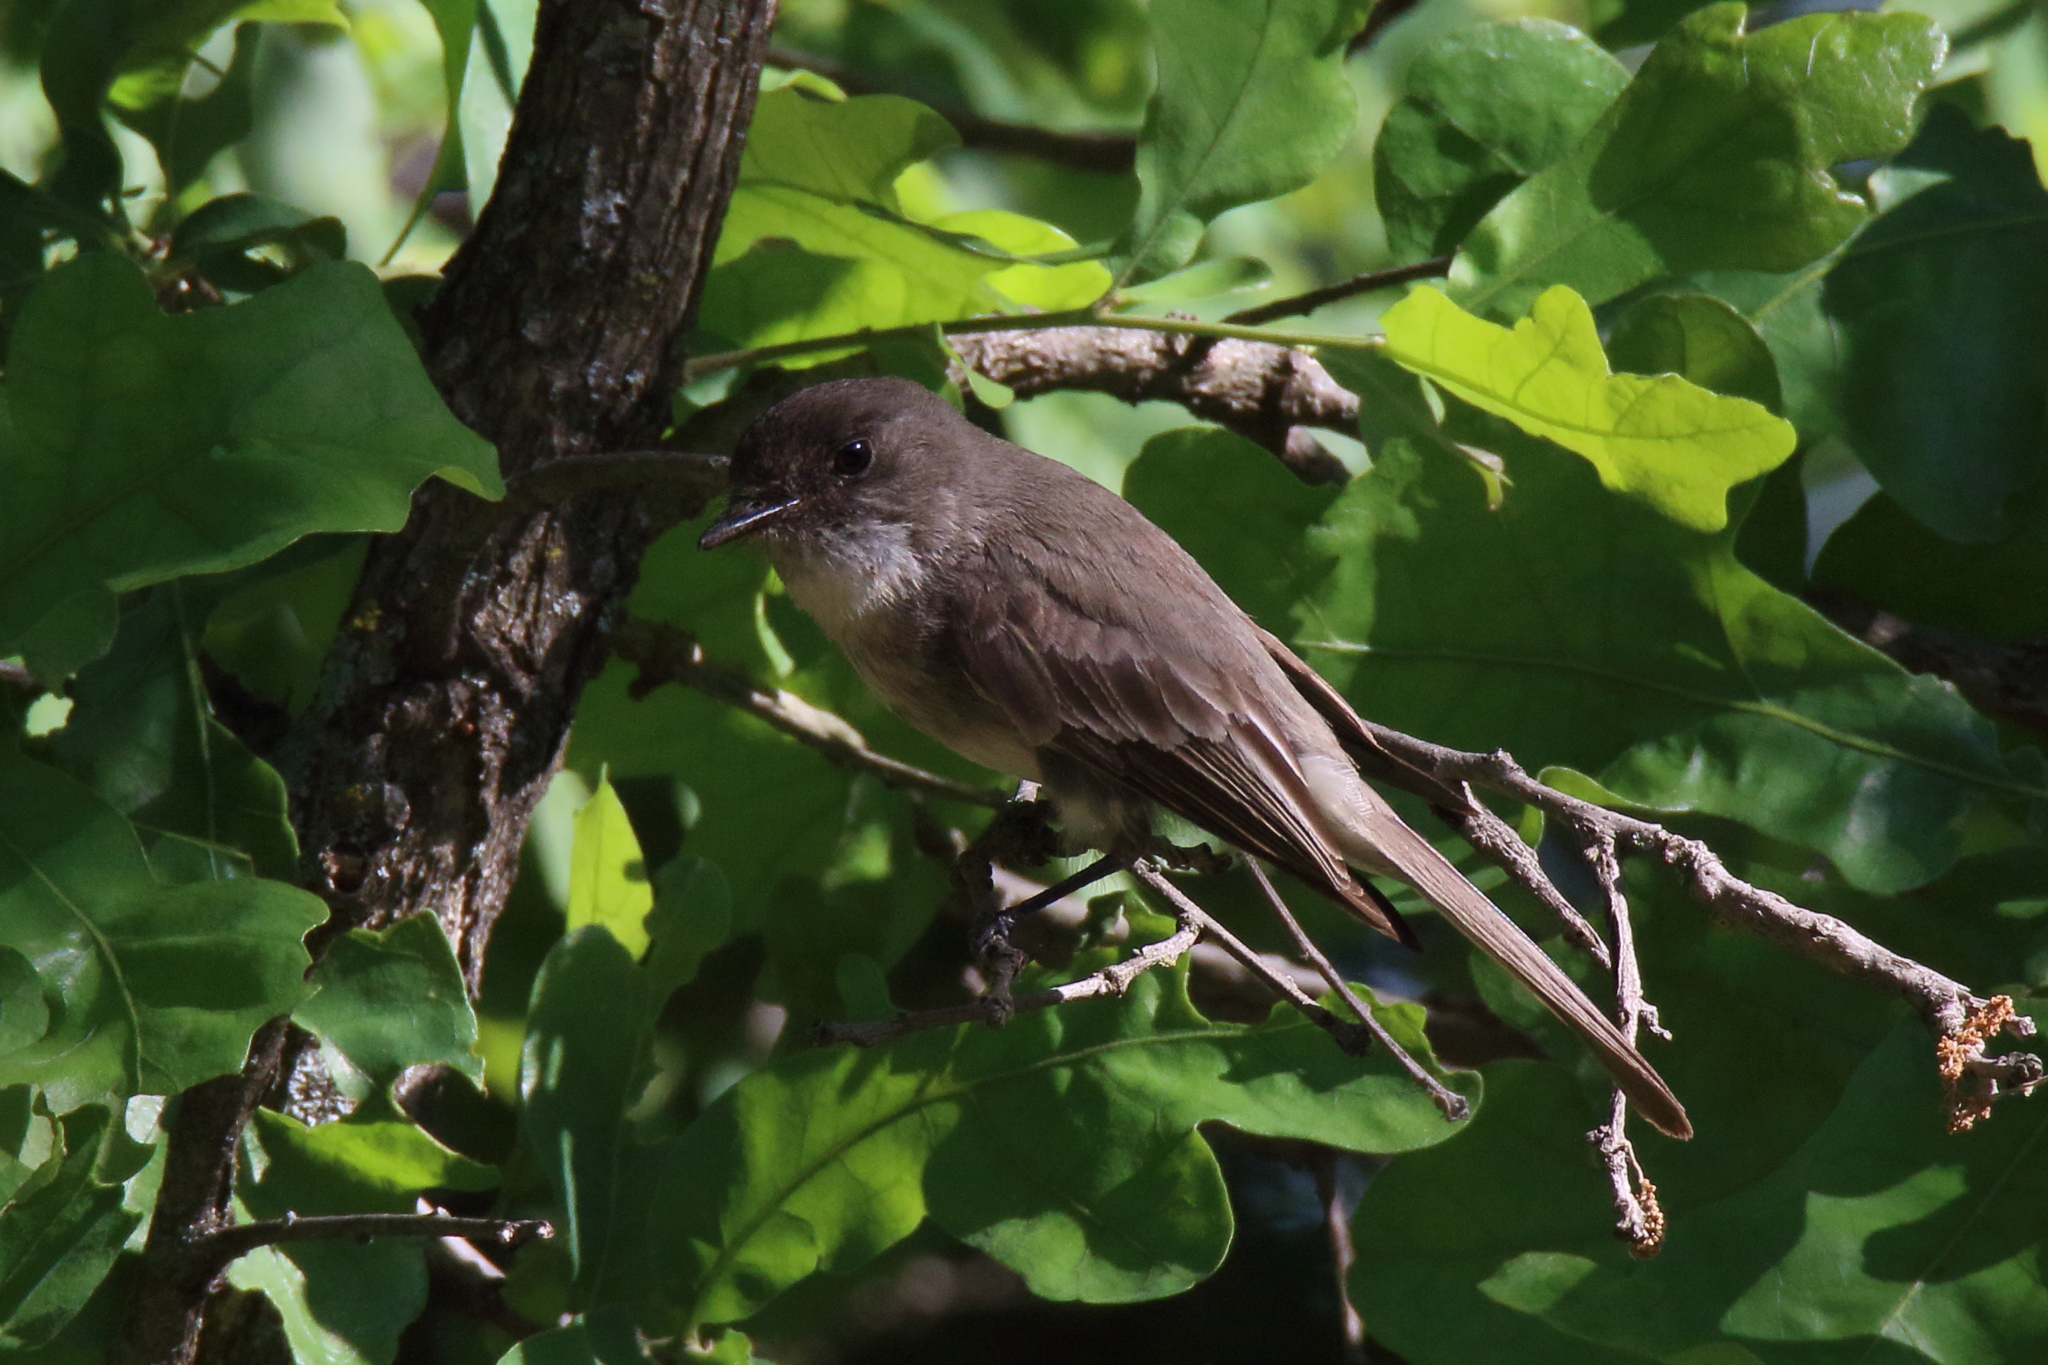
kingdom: Animalia
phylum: Chordata
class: Aves
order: Passeriformes
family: Tyrannidae
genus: Sayornis
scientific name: Sayornis phoebe
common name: Eastern phoebe
